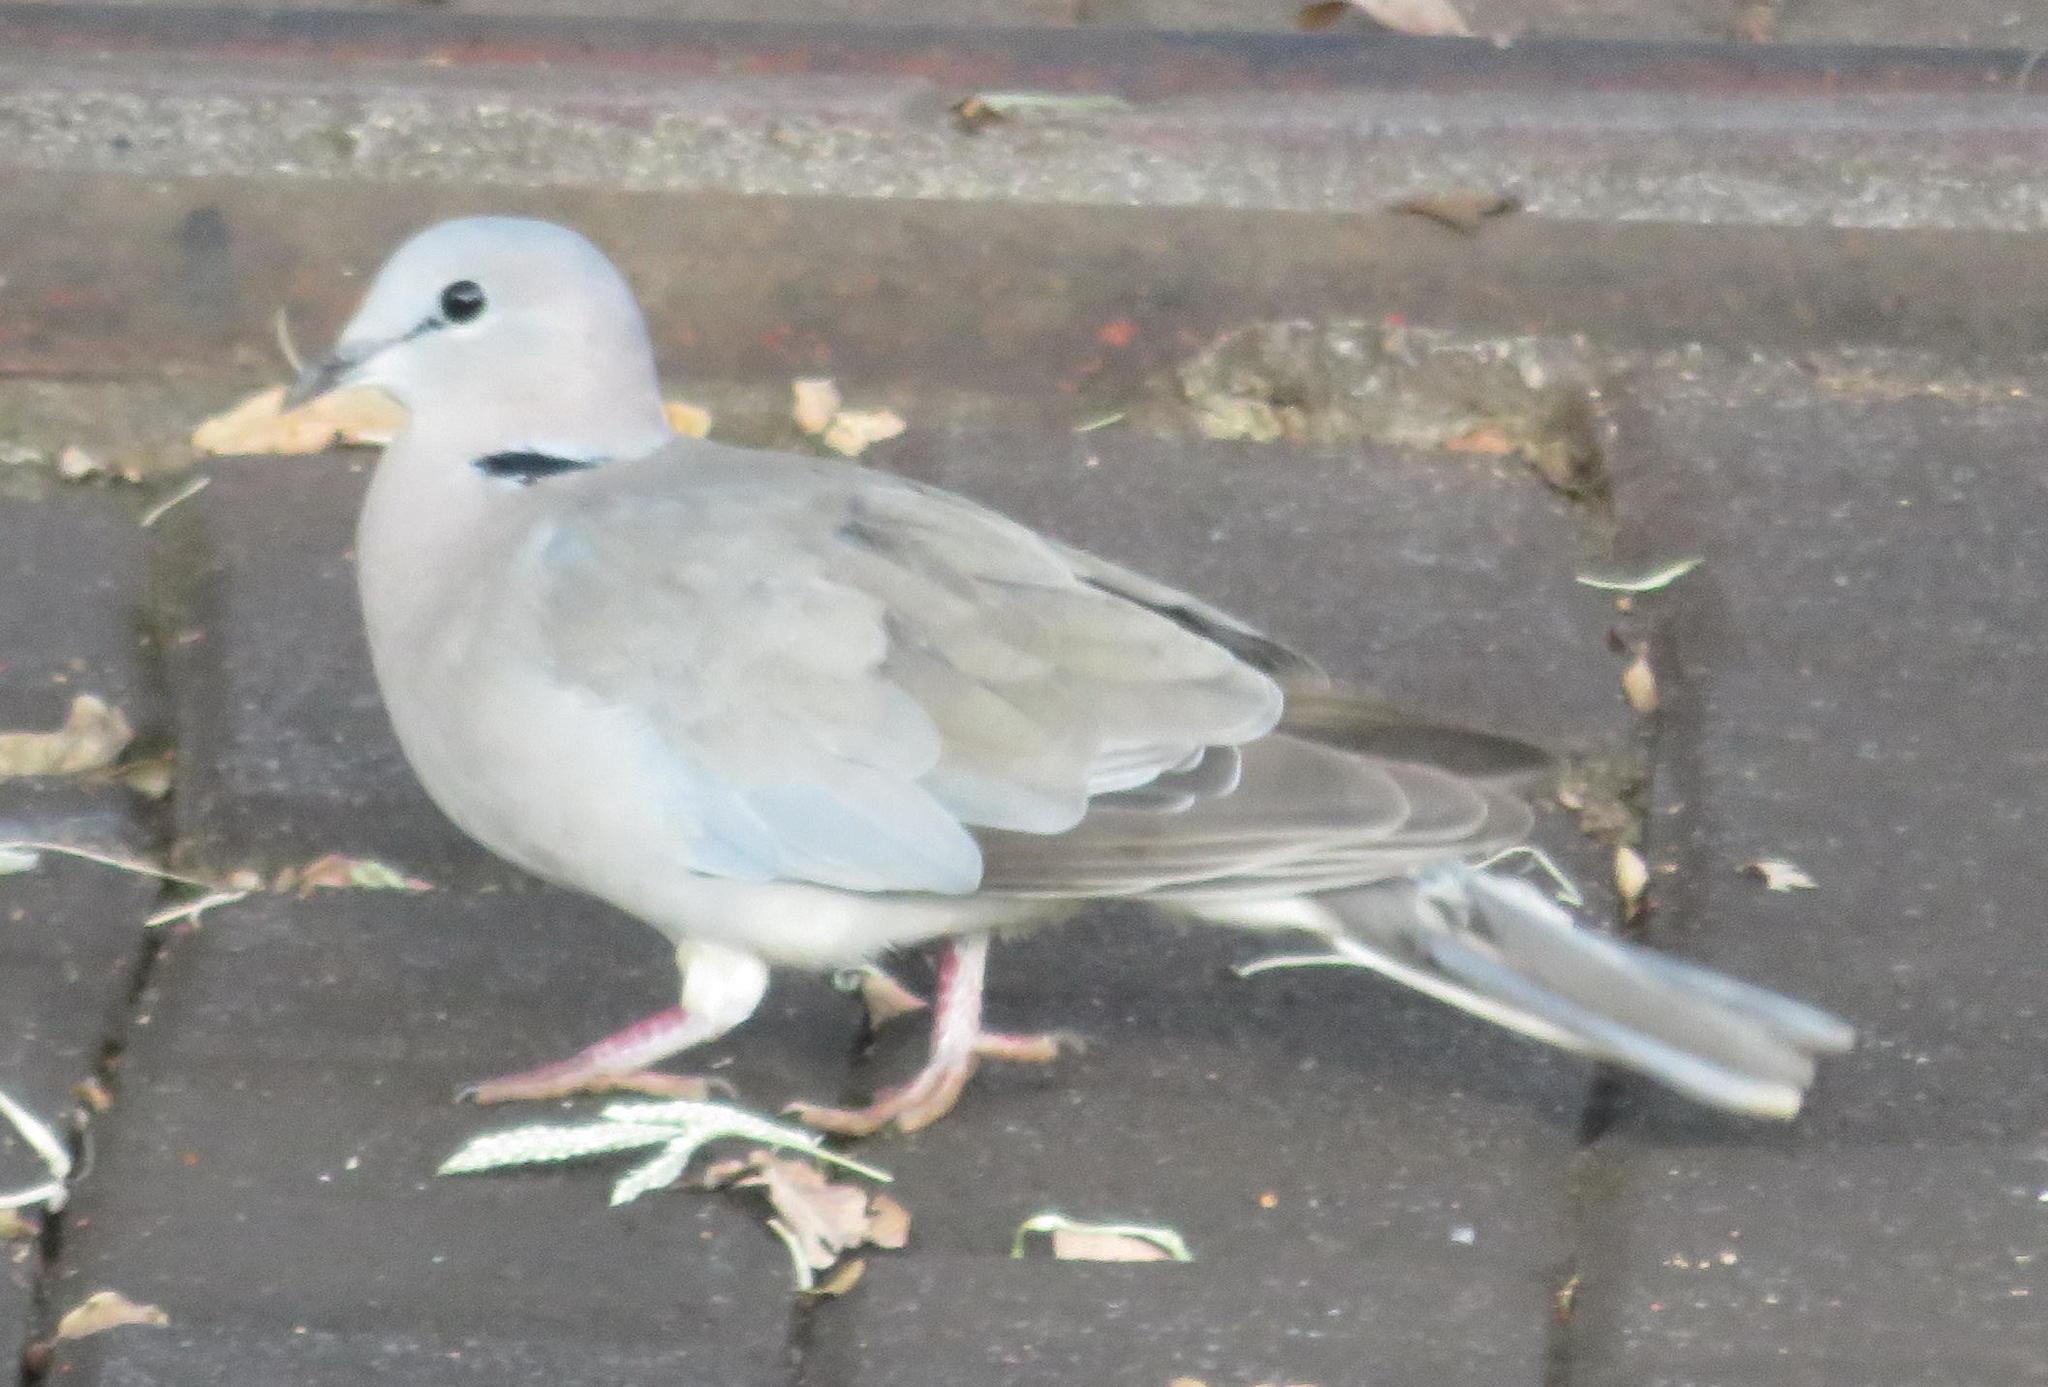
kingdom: Animalia
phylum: Chordata
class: Aves
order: Columbiformes
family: Columbidae
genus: Streptopelia
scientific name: Streptopelia capicola
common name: Ring-necked dove
